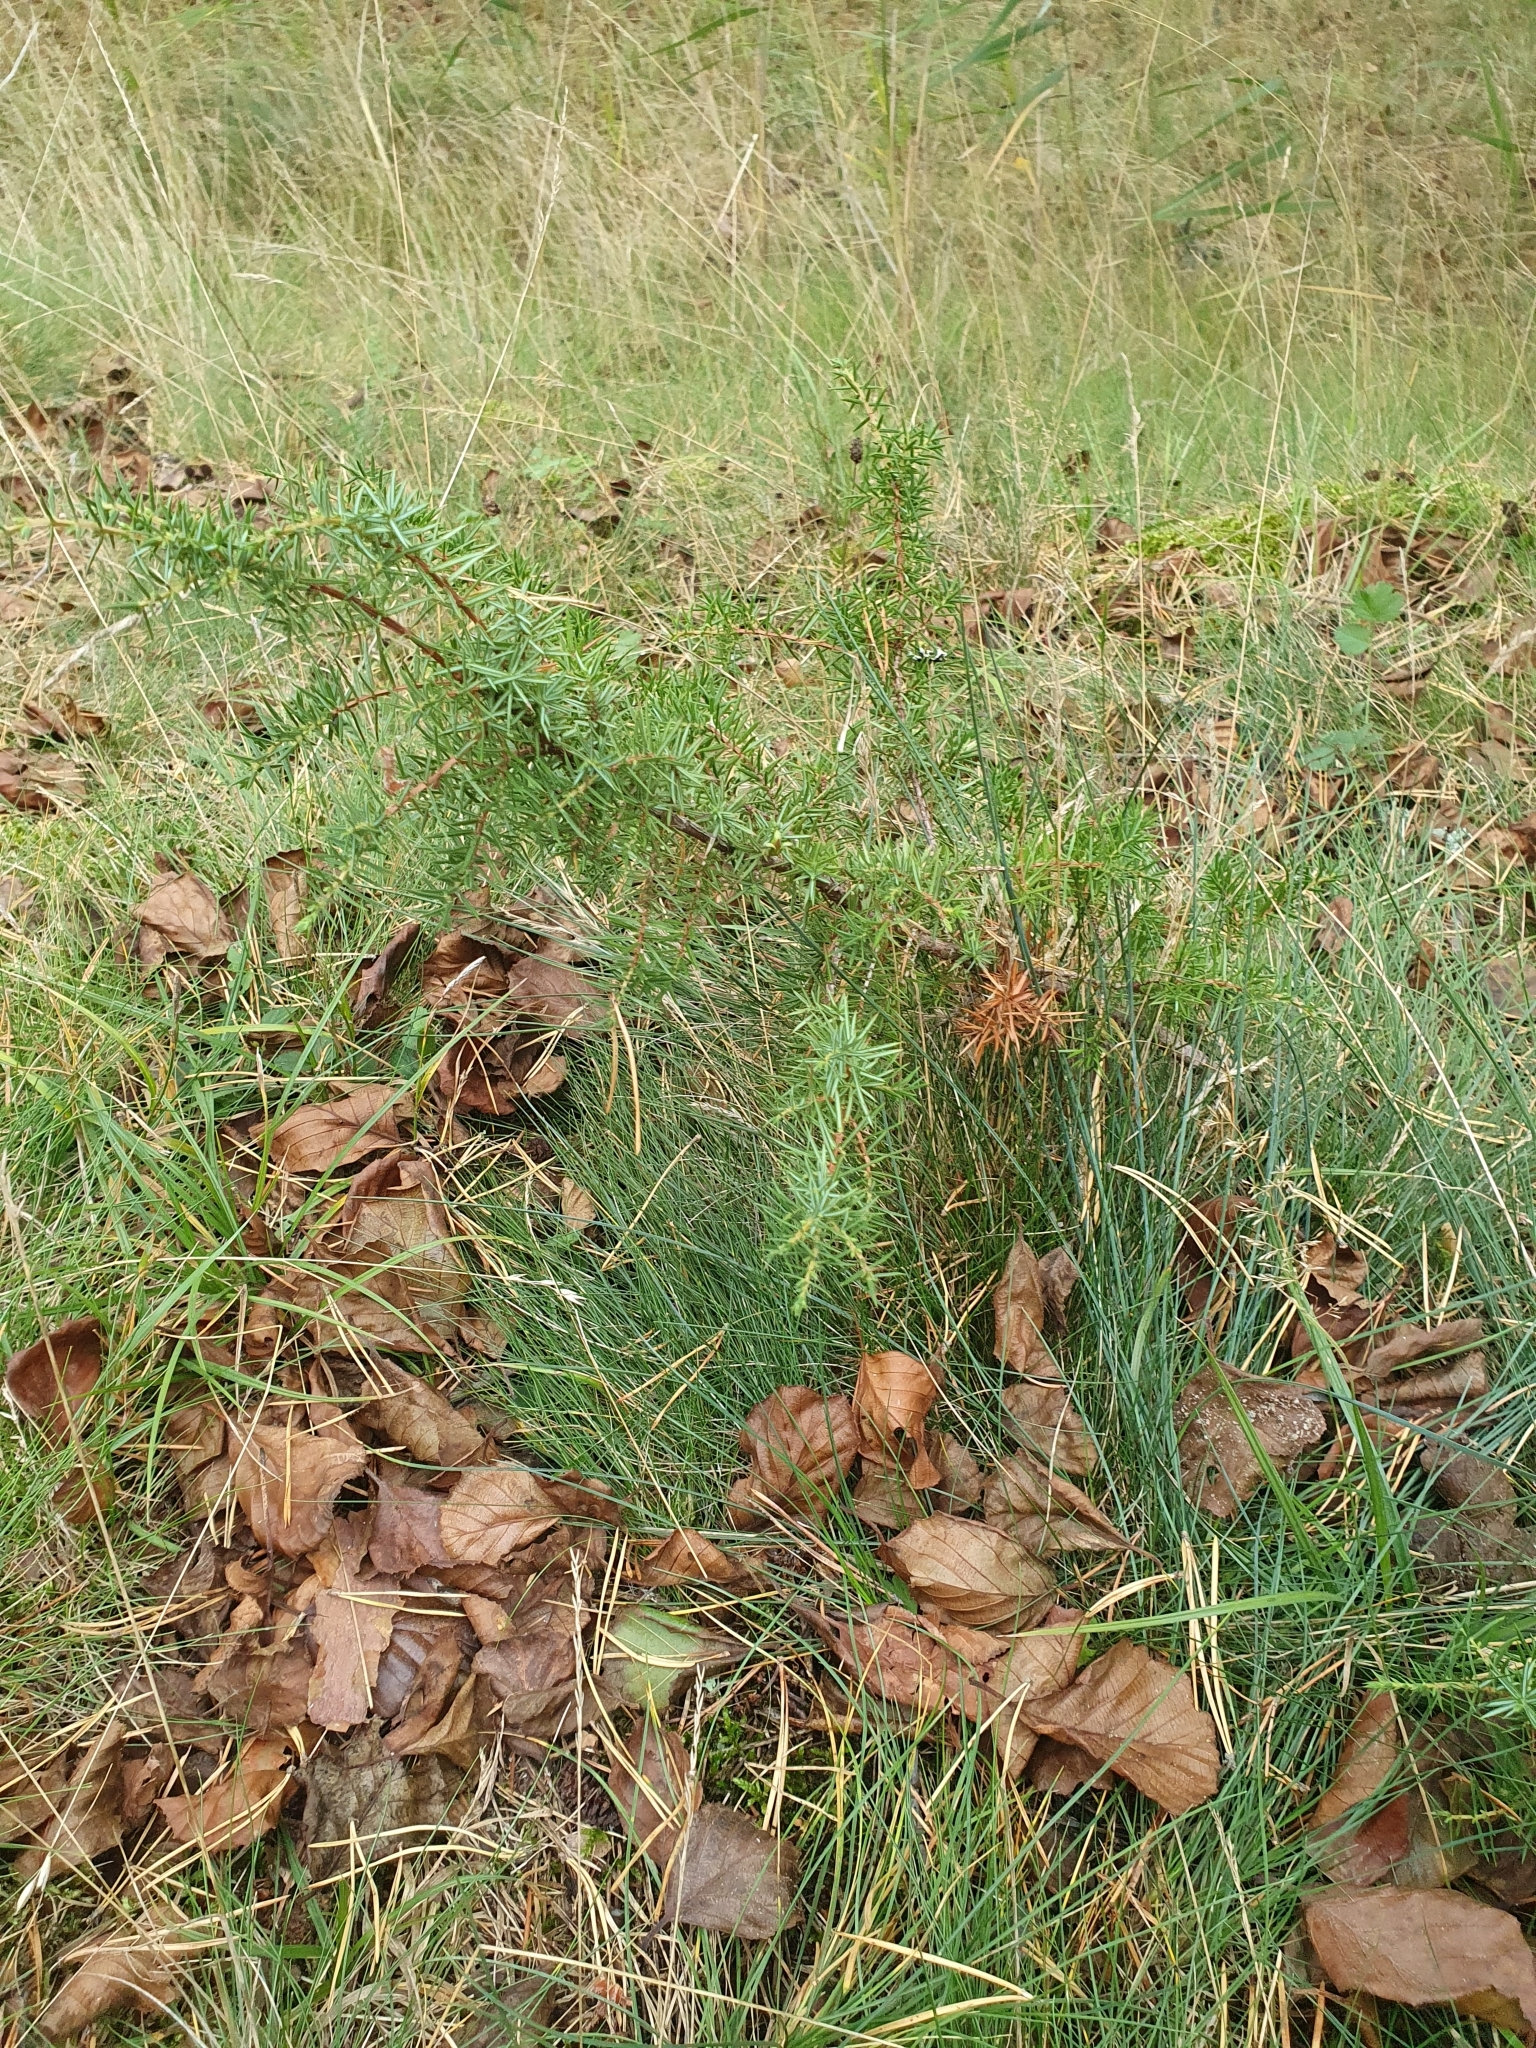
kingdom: Plantae
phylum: Tracheophyta
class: Pinopsida
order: Pinales
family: Cupressaceae
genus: Juniperus
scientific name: Juniperus communis
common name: Common juniper
